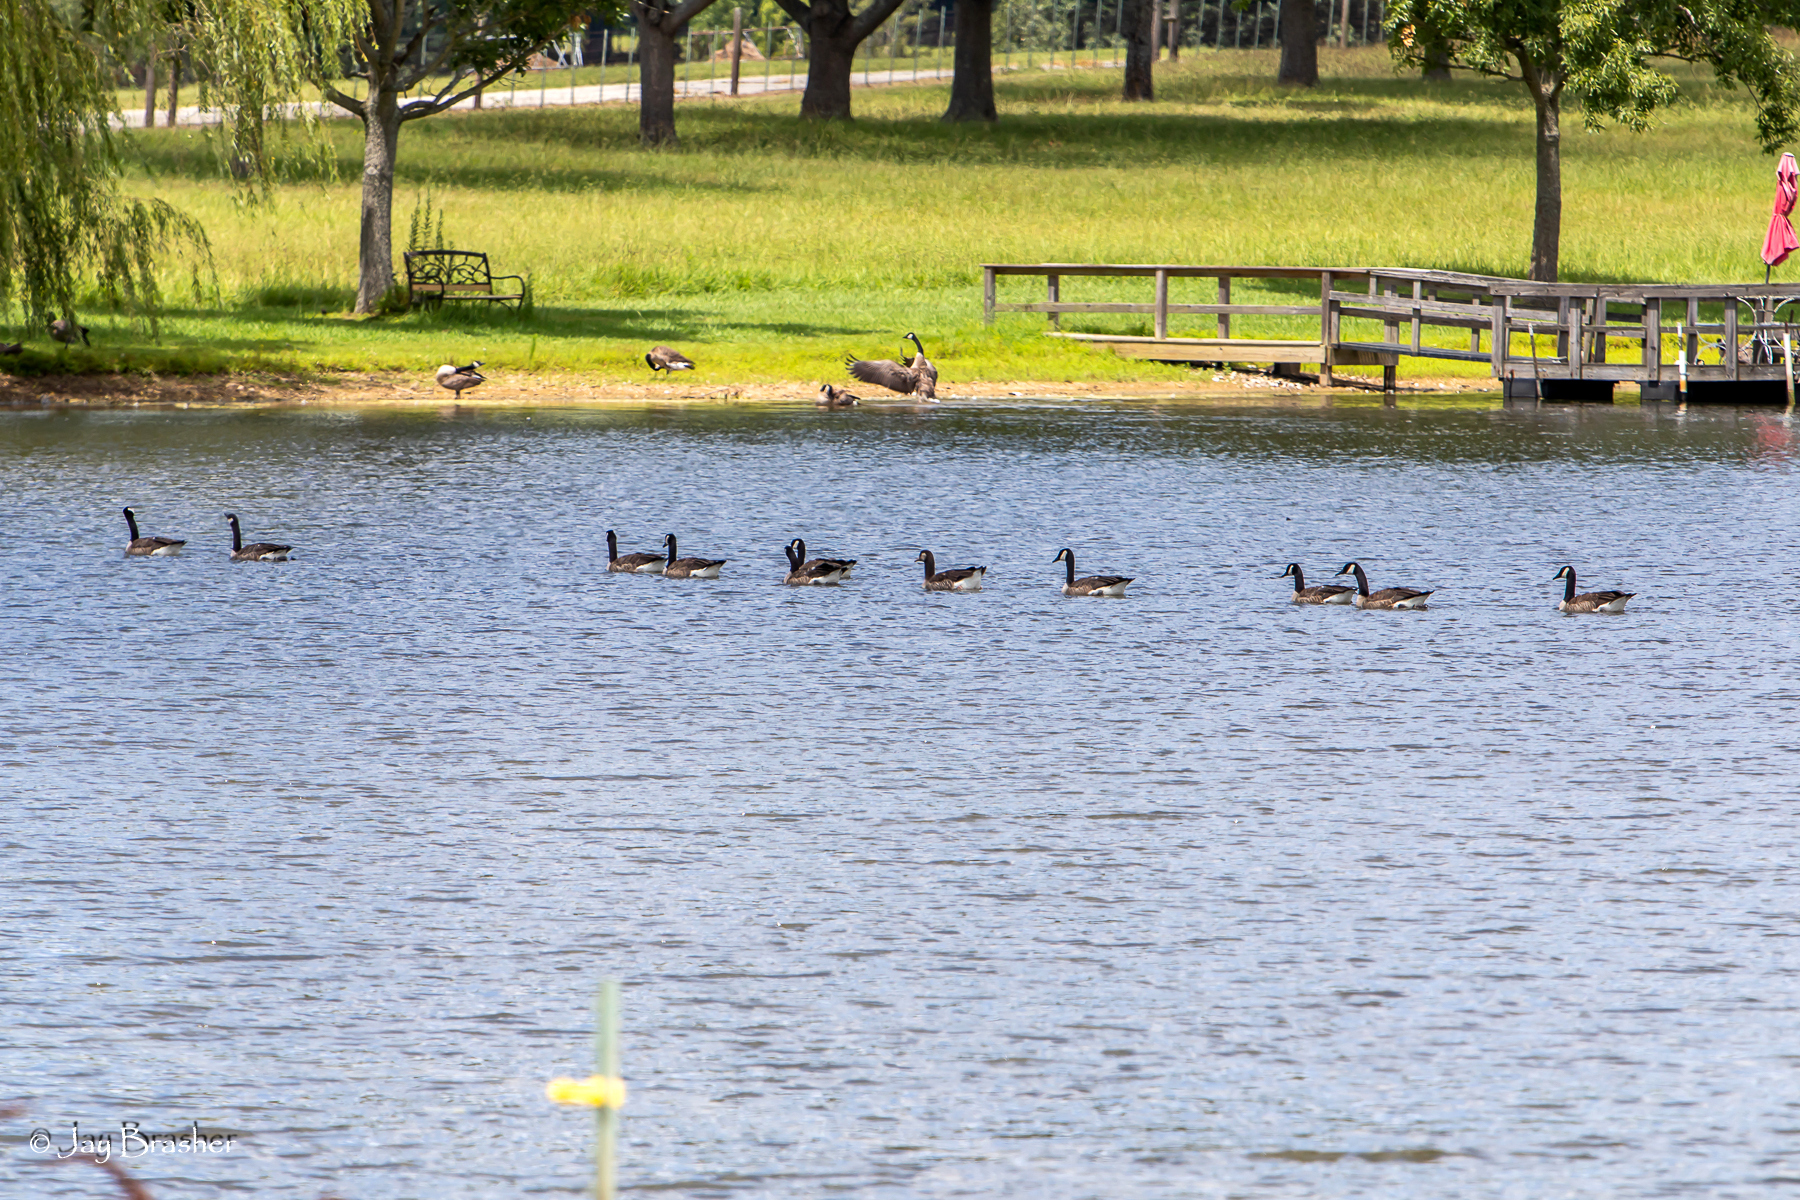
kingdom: Animalia
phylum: Chordata
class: Aves
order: Anseriformes
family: Anatidae
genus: Branta
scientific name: Branta canadensis
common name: Canada goose
